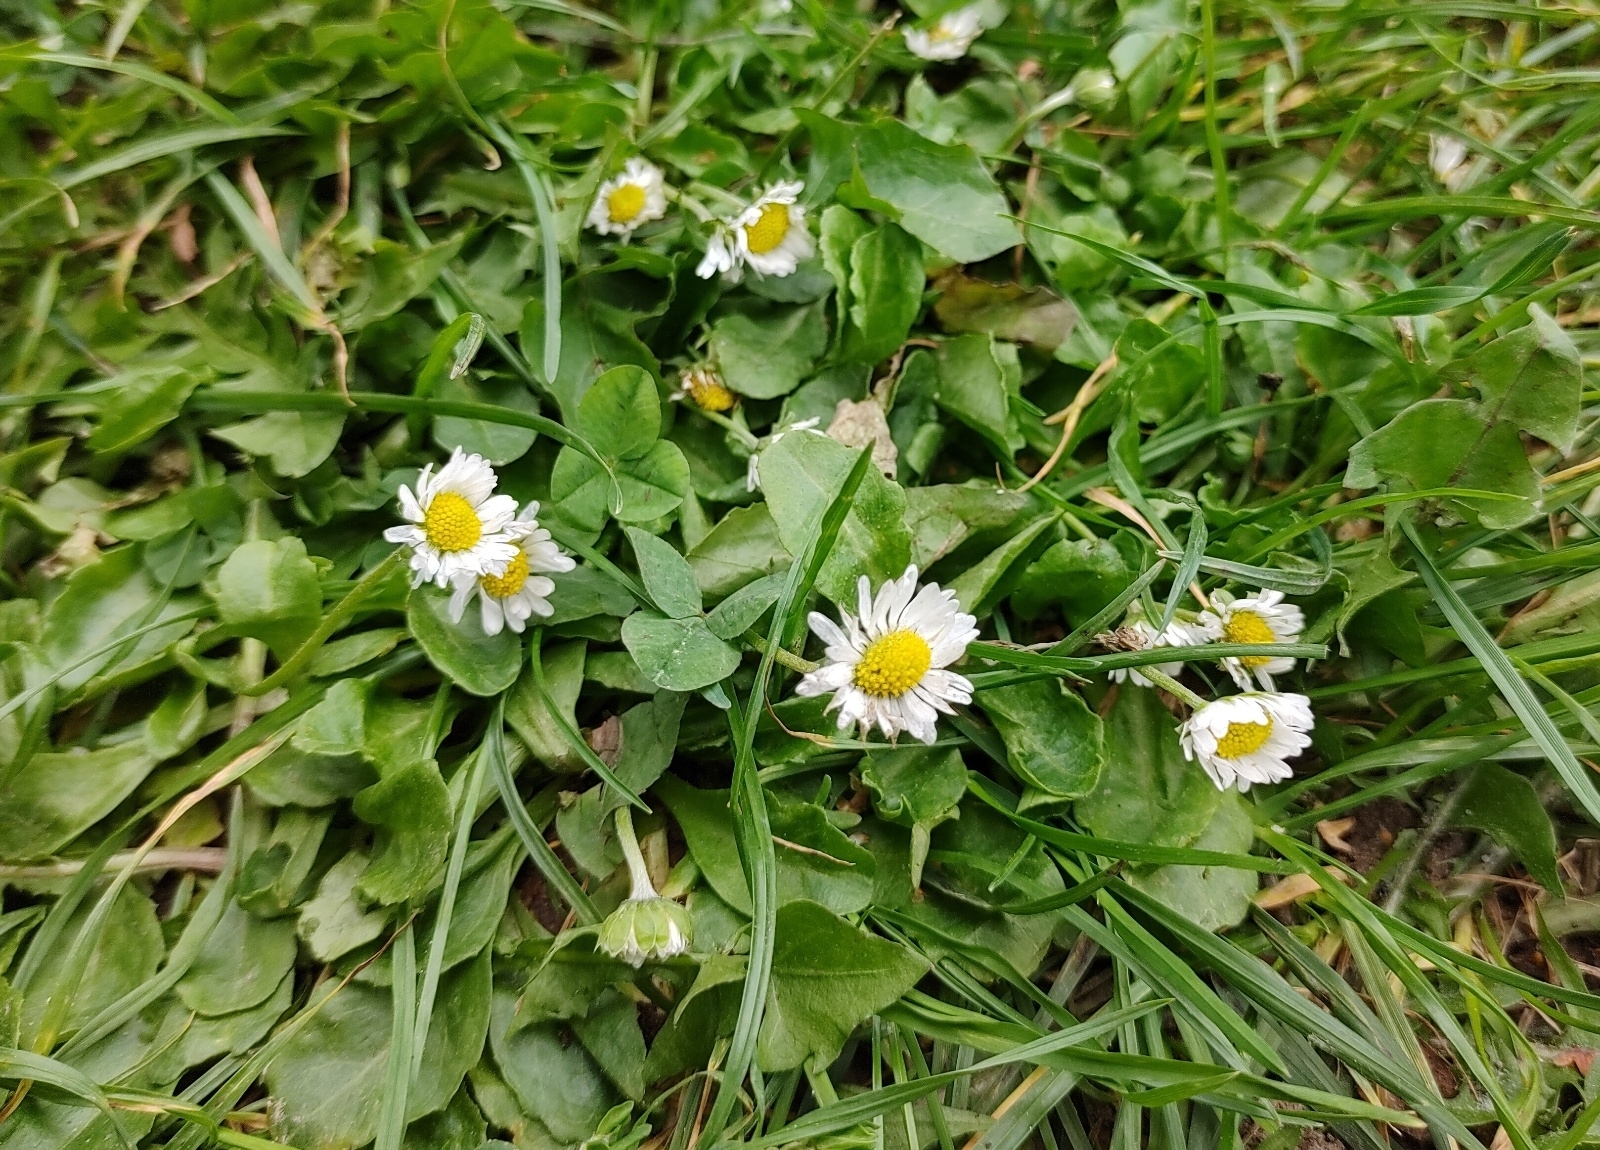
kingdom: Plantae
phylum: Tracheophyta
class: Magnoliopsida
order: Asterales
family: Asteraceae
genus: Bellis
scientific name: Bellis perennis
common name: Lawndaisy
